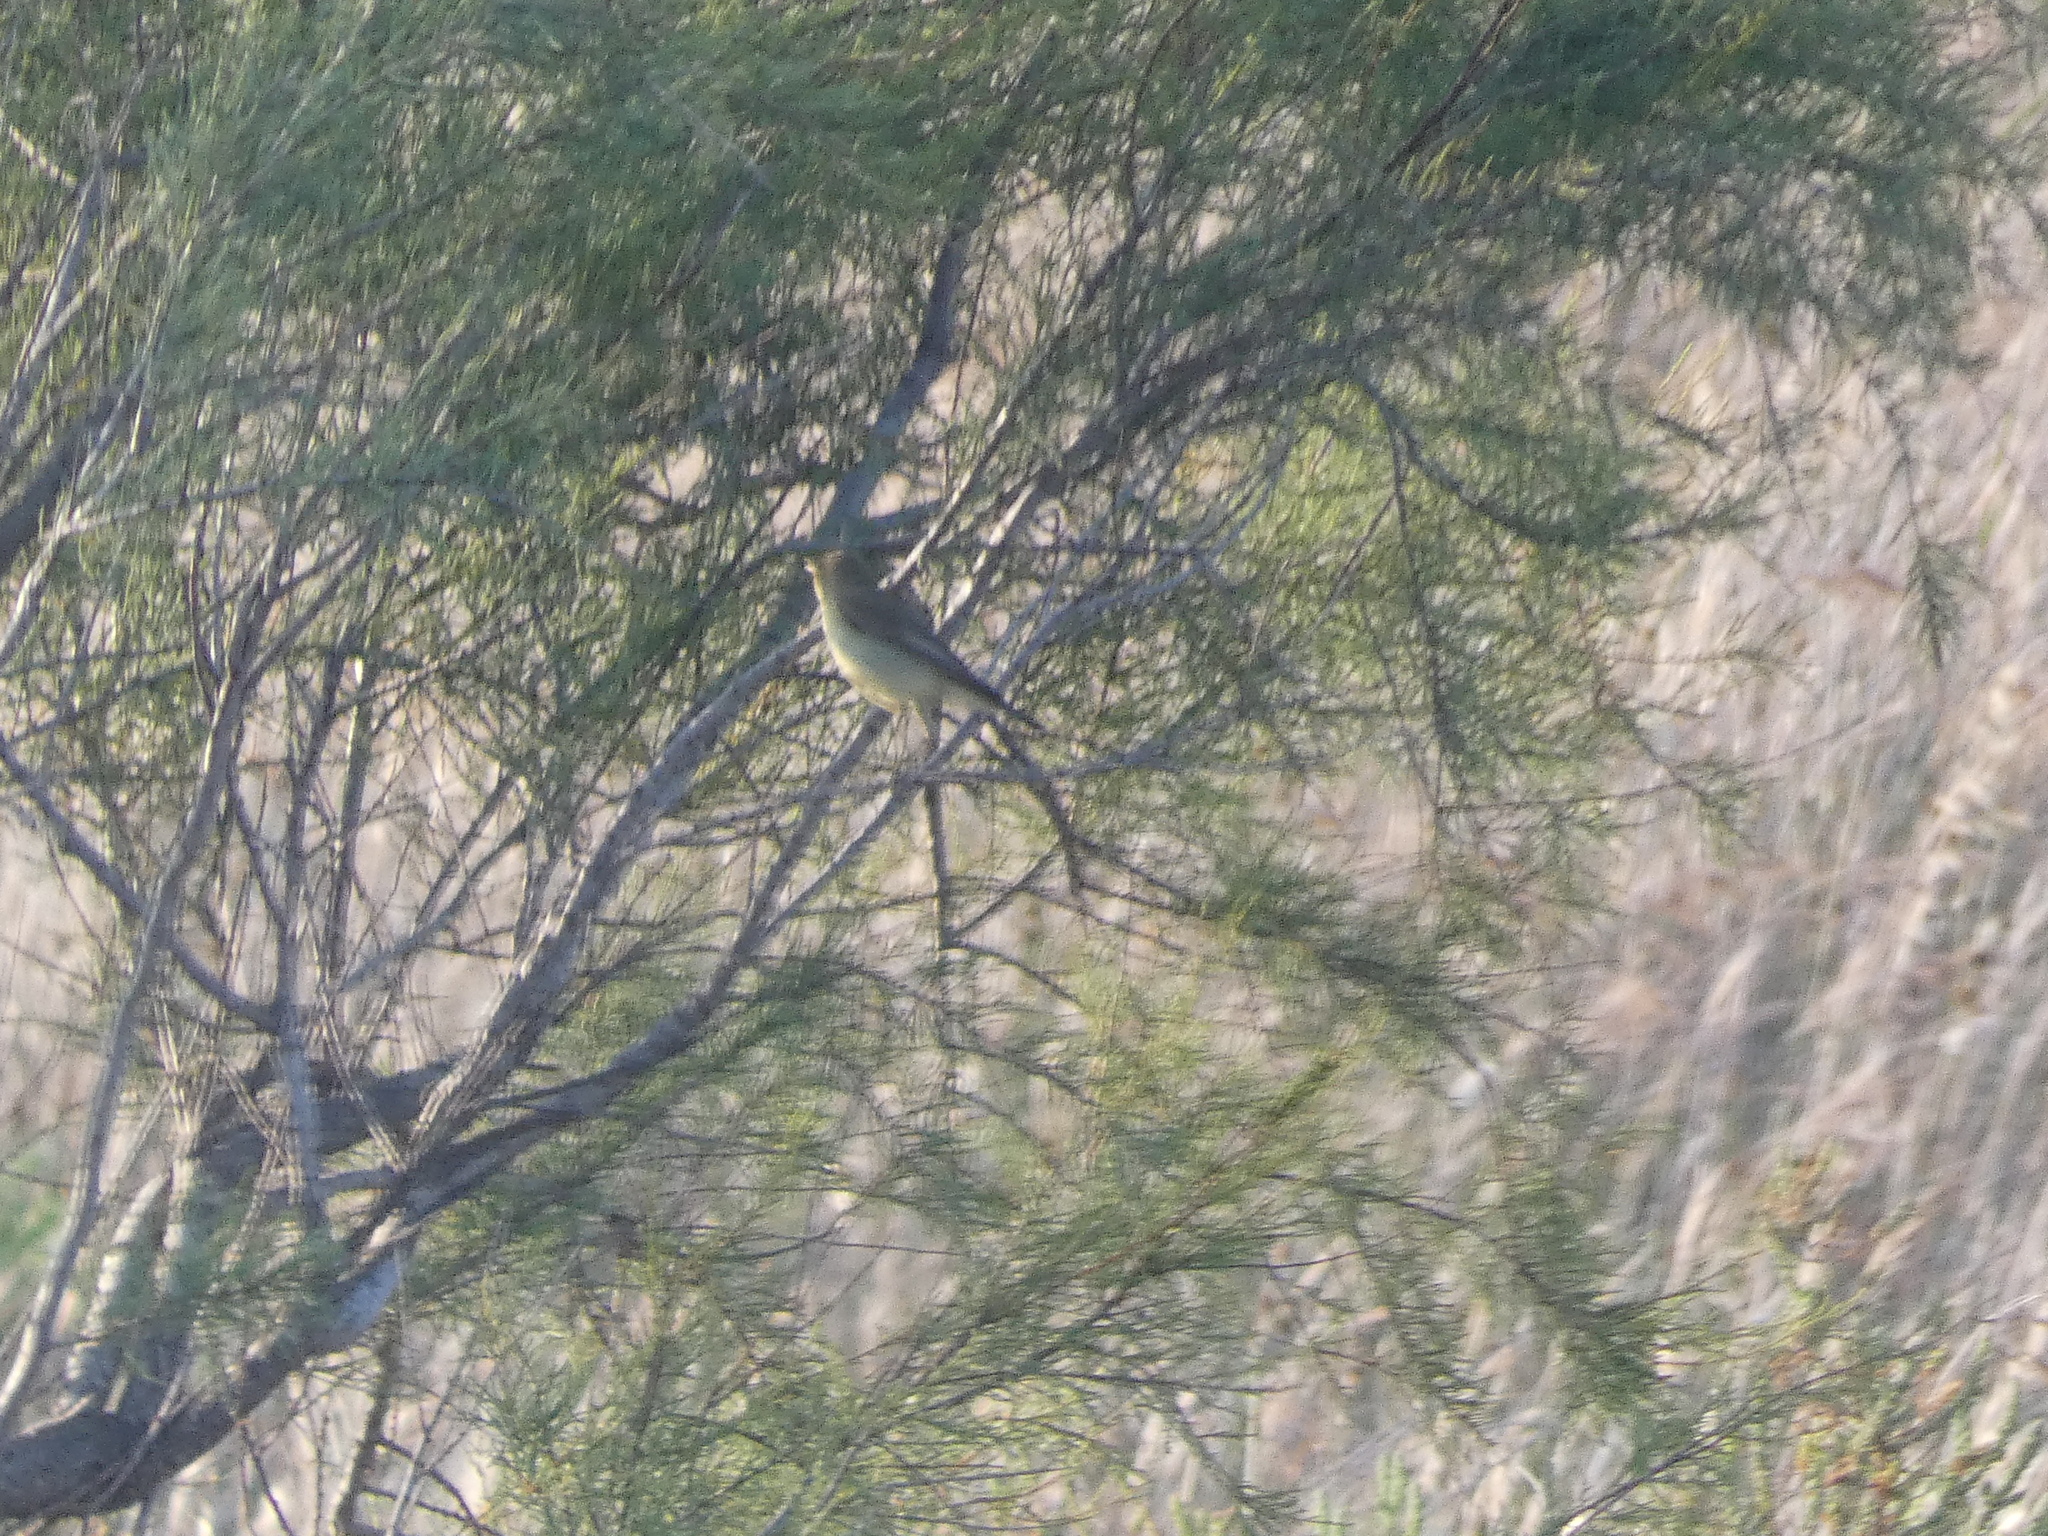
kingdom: Animalia
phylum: Chordata
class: Aves
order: Passeriformes
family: Acrocephalidae
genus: Hippolais
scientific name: Hippolais icterina
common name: Icterine warbler
